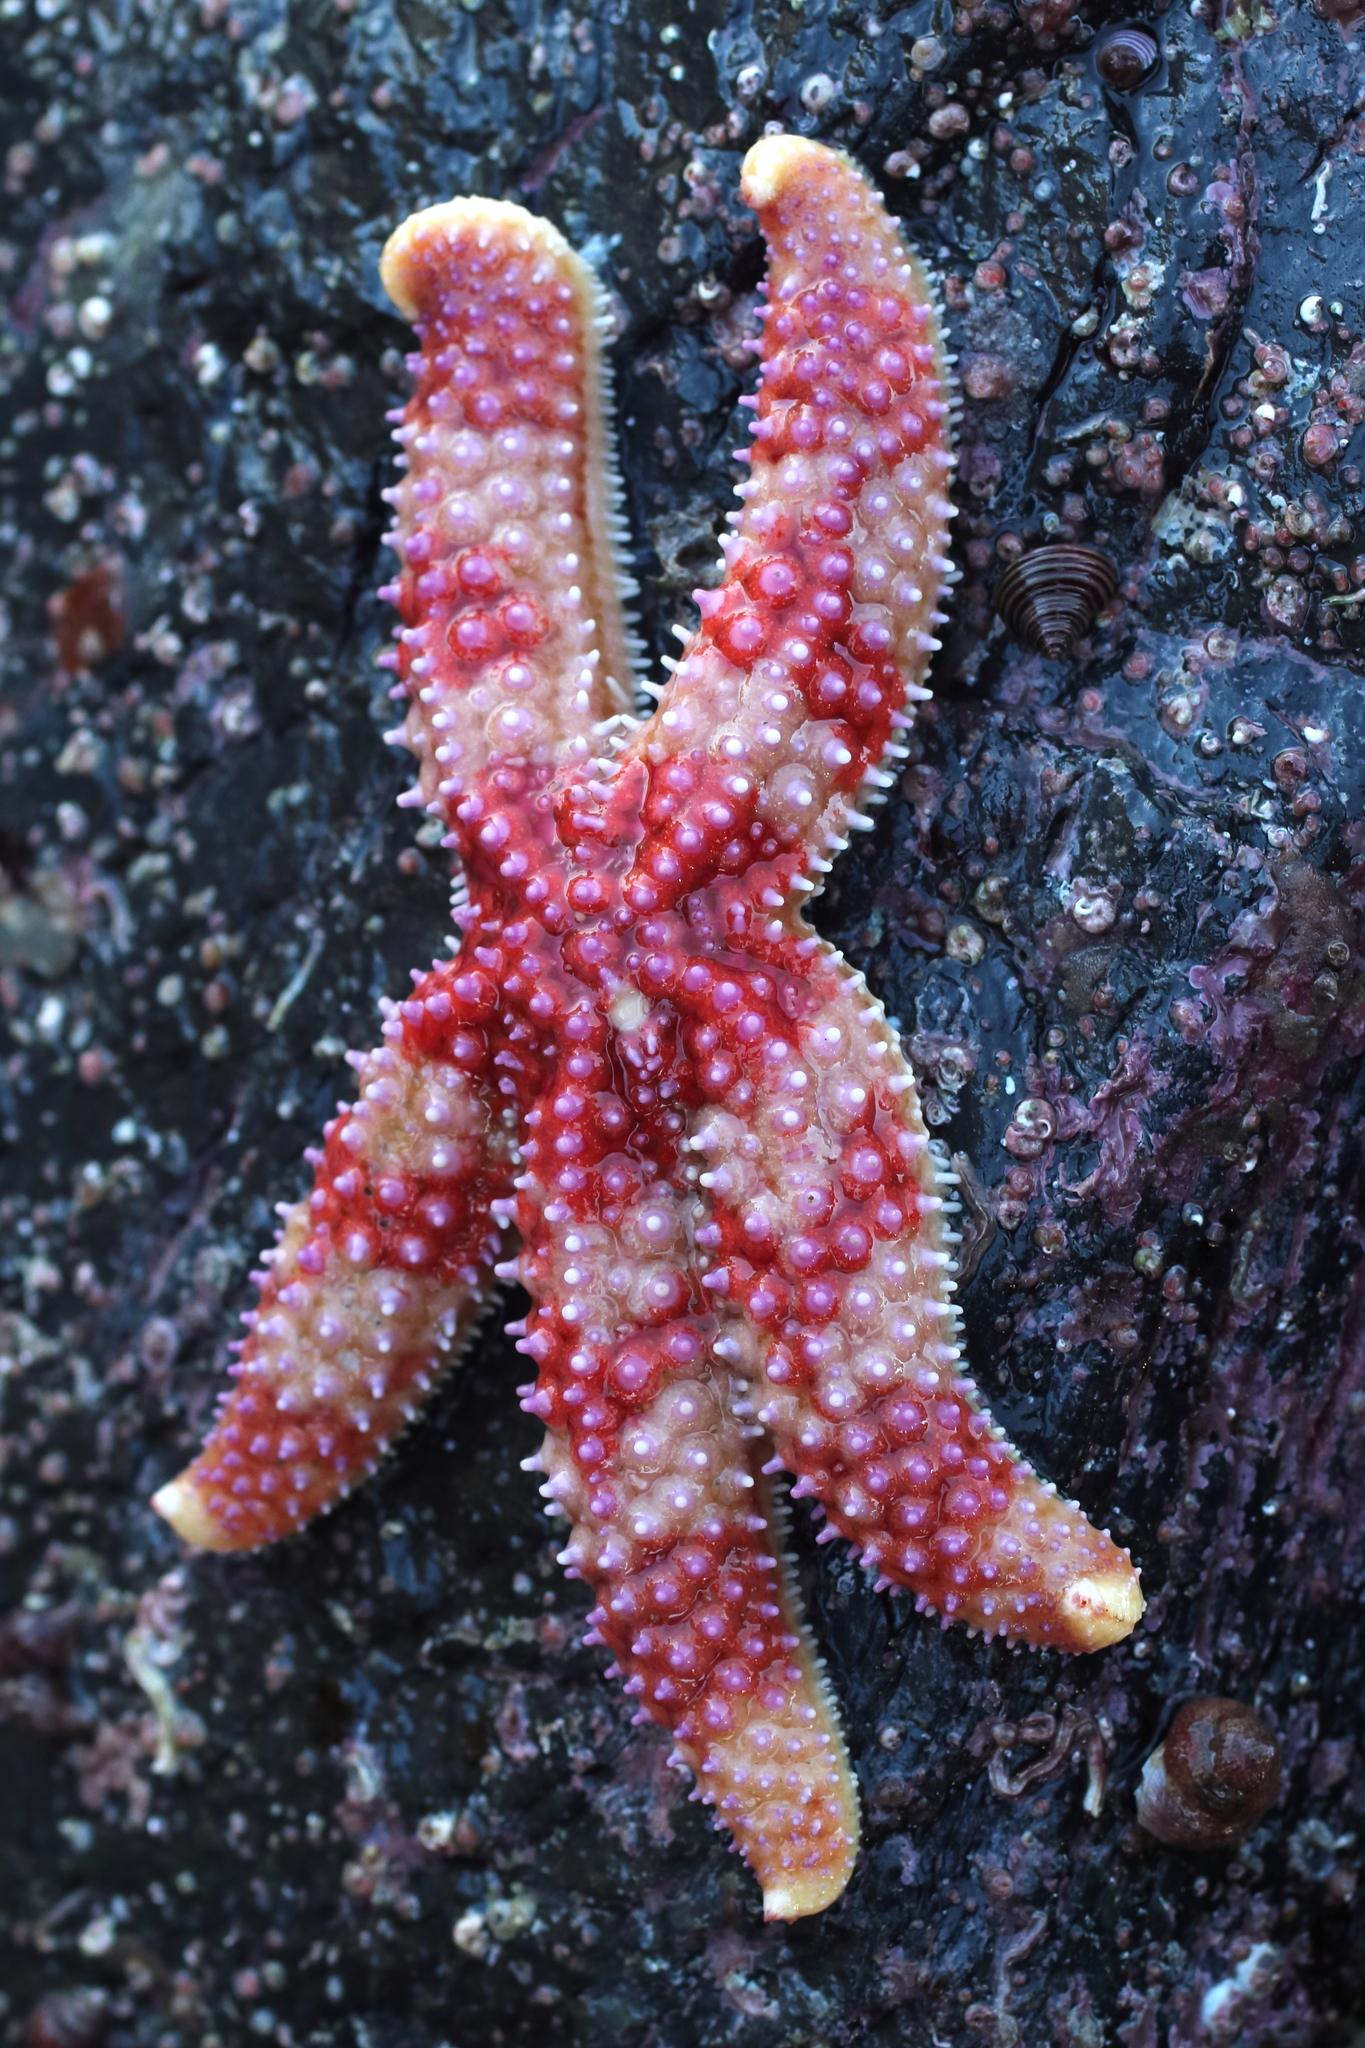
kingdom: Animalia
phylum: Echinodermata
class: Asteroidea
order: Forcipulatida
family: Asteriidae
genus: Orthasterias
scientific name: Orthasterias koehleri
